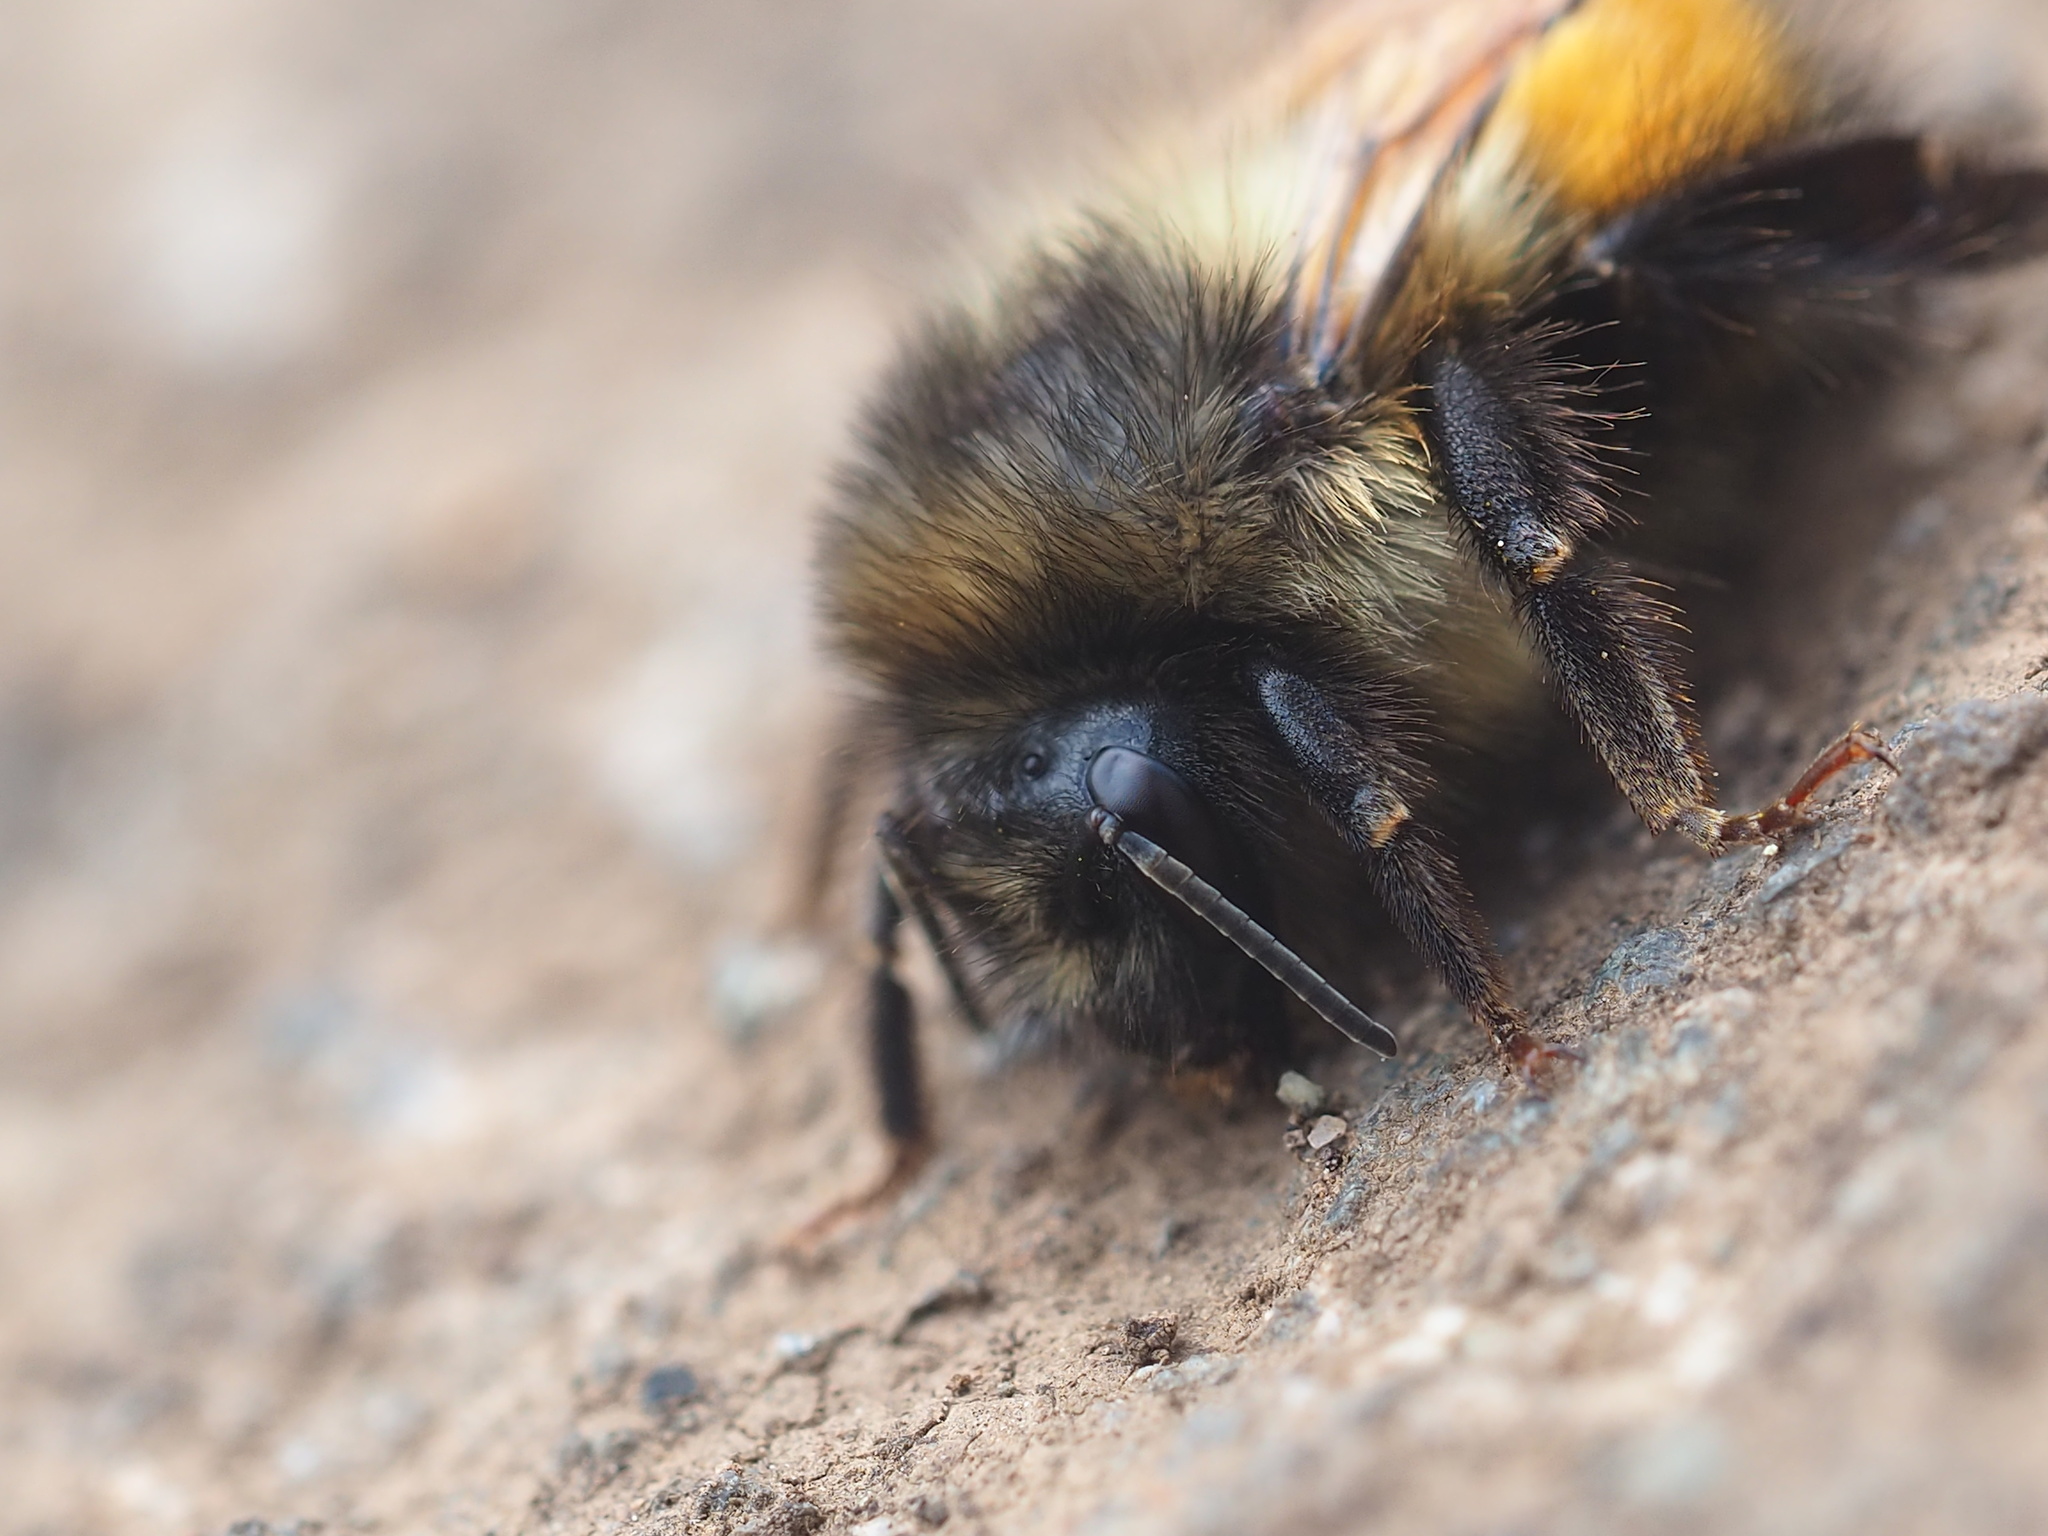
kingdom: Animalia
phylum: Arthropoda
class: Insecta
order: Hymenoptera
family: Apidae
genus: Bombus
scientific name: Bombus melanopygus
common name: Black tail bumble bee
